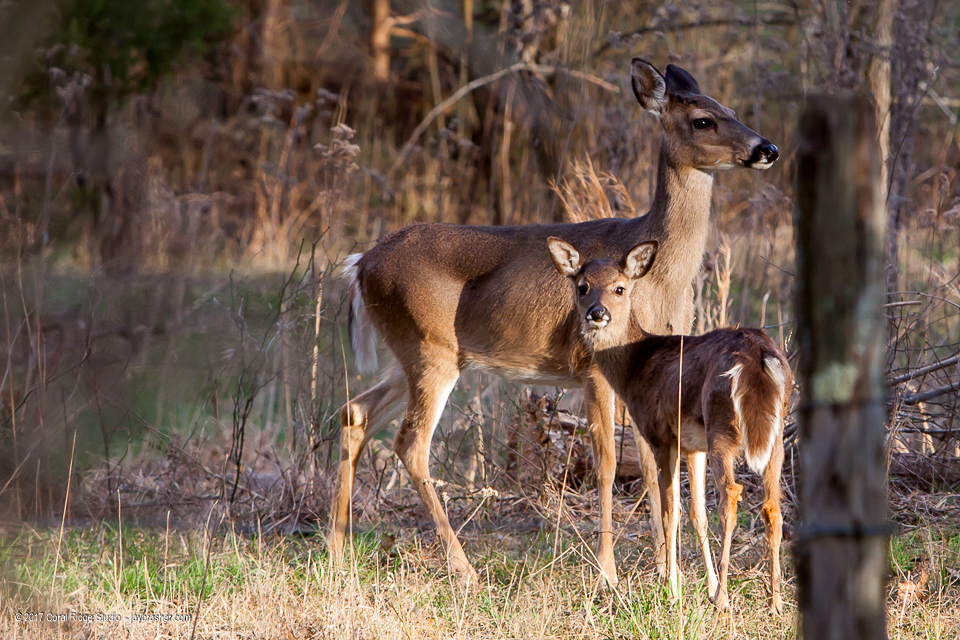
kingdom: Animalia
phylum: Chordata
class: Mammalia
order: Artiodactyla
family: Cervidae
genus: Odocoileus
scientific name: Odocoileus virginianus
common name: White-tailed deer
